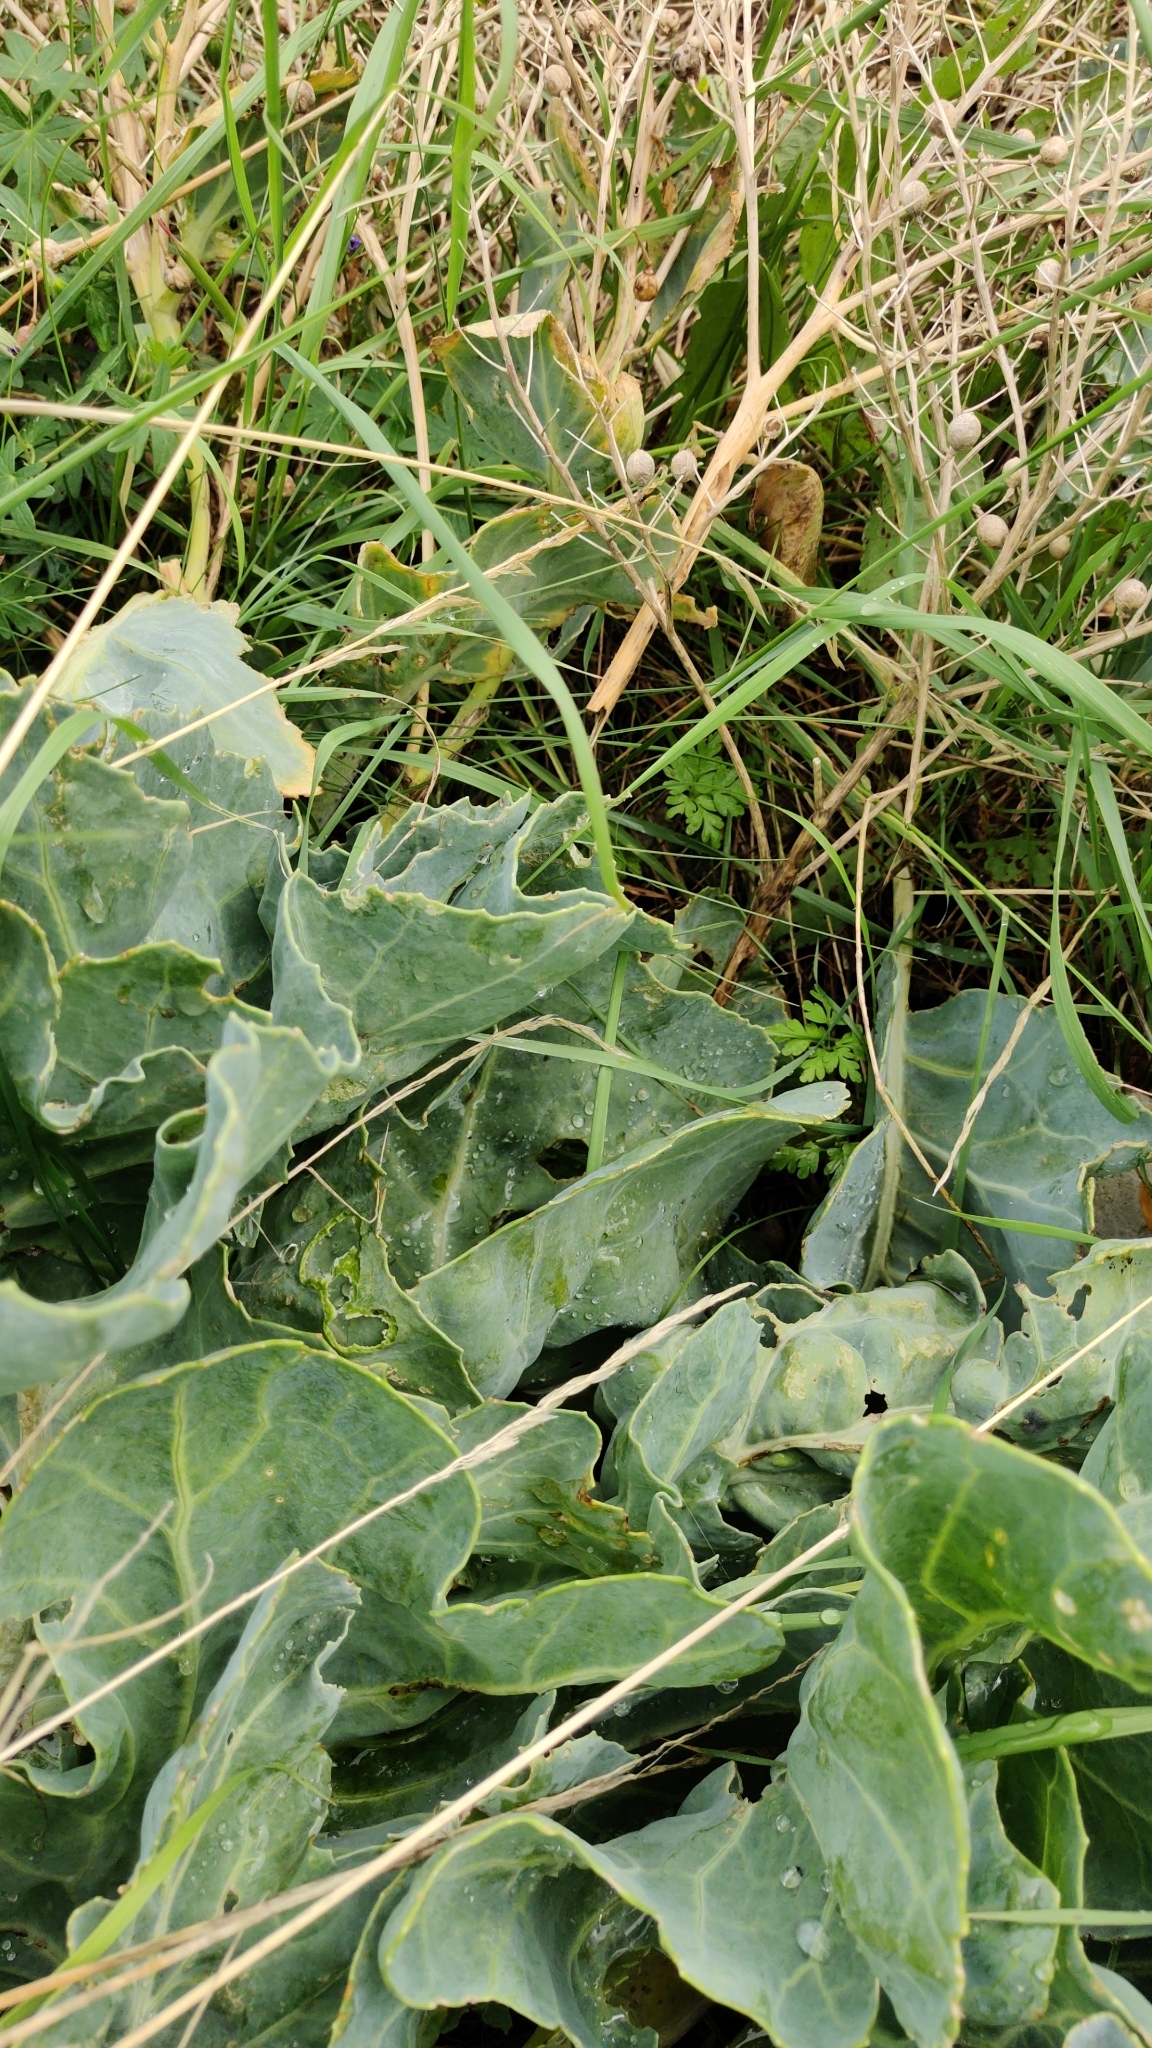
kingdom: Plantae
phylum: Tracheophyta
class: Magnoliopsida
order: Brassicales
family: Brassicaceae
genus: Crambe
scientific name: Crambe maritima
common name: Sea-kale
